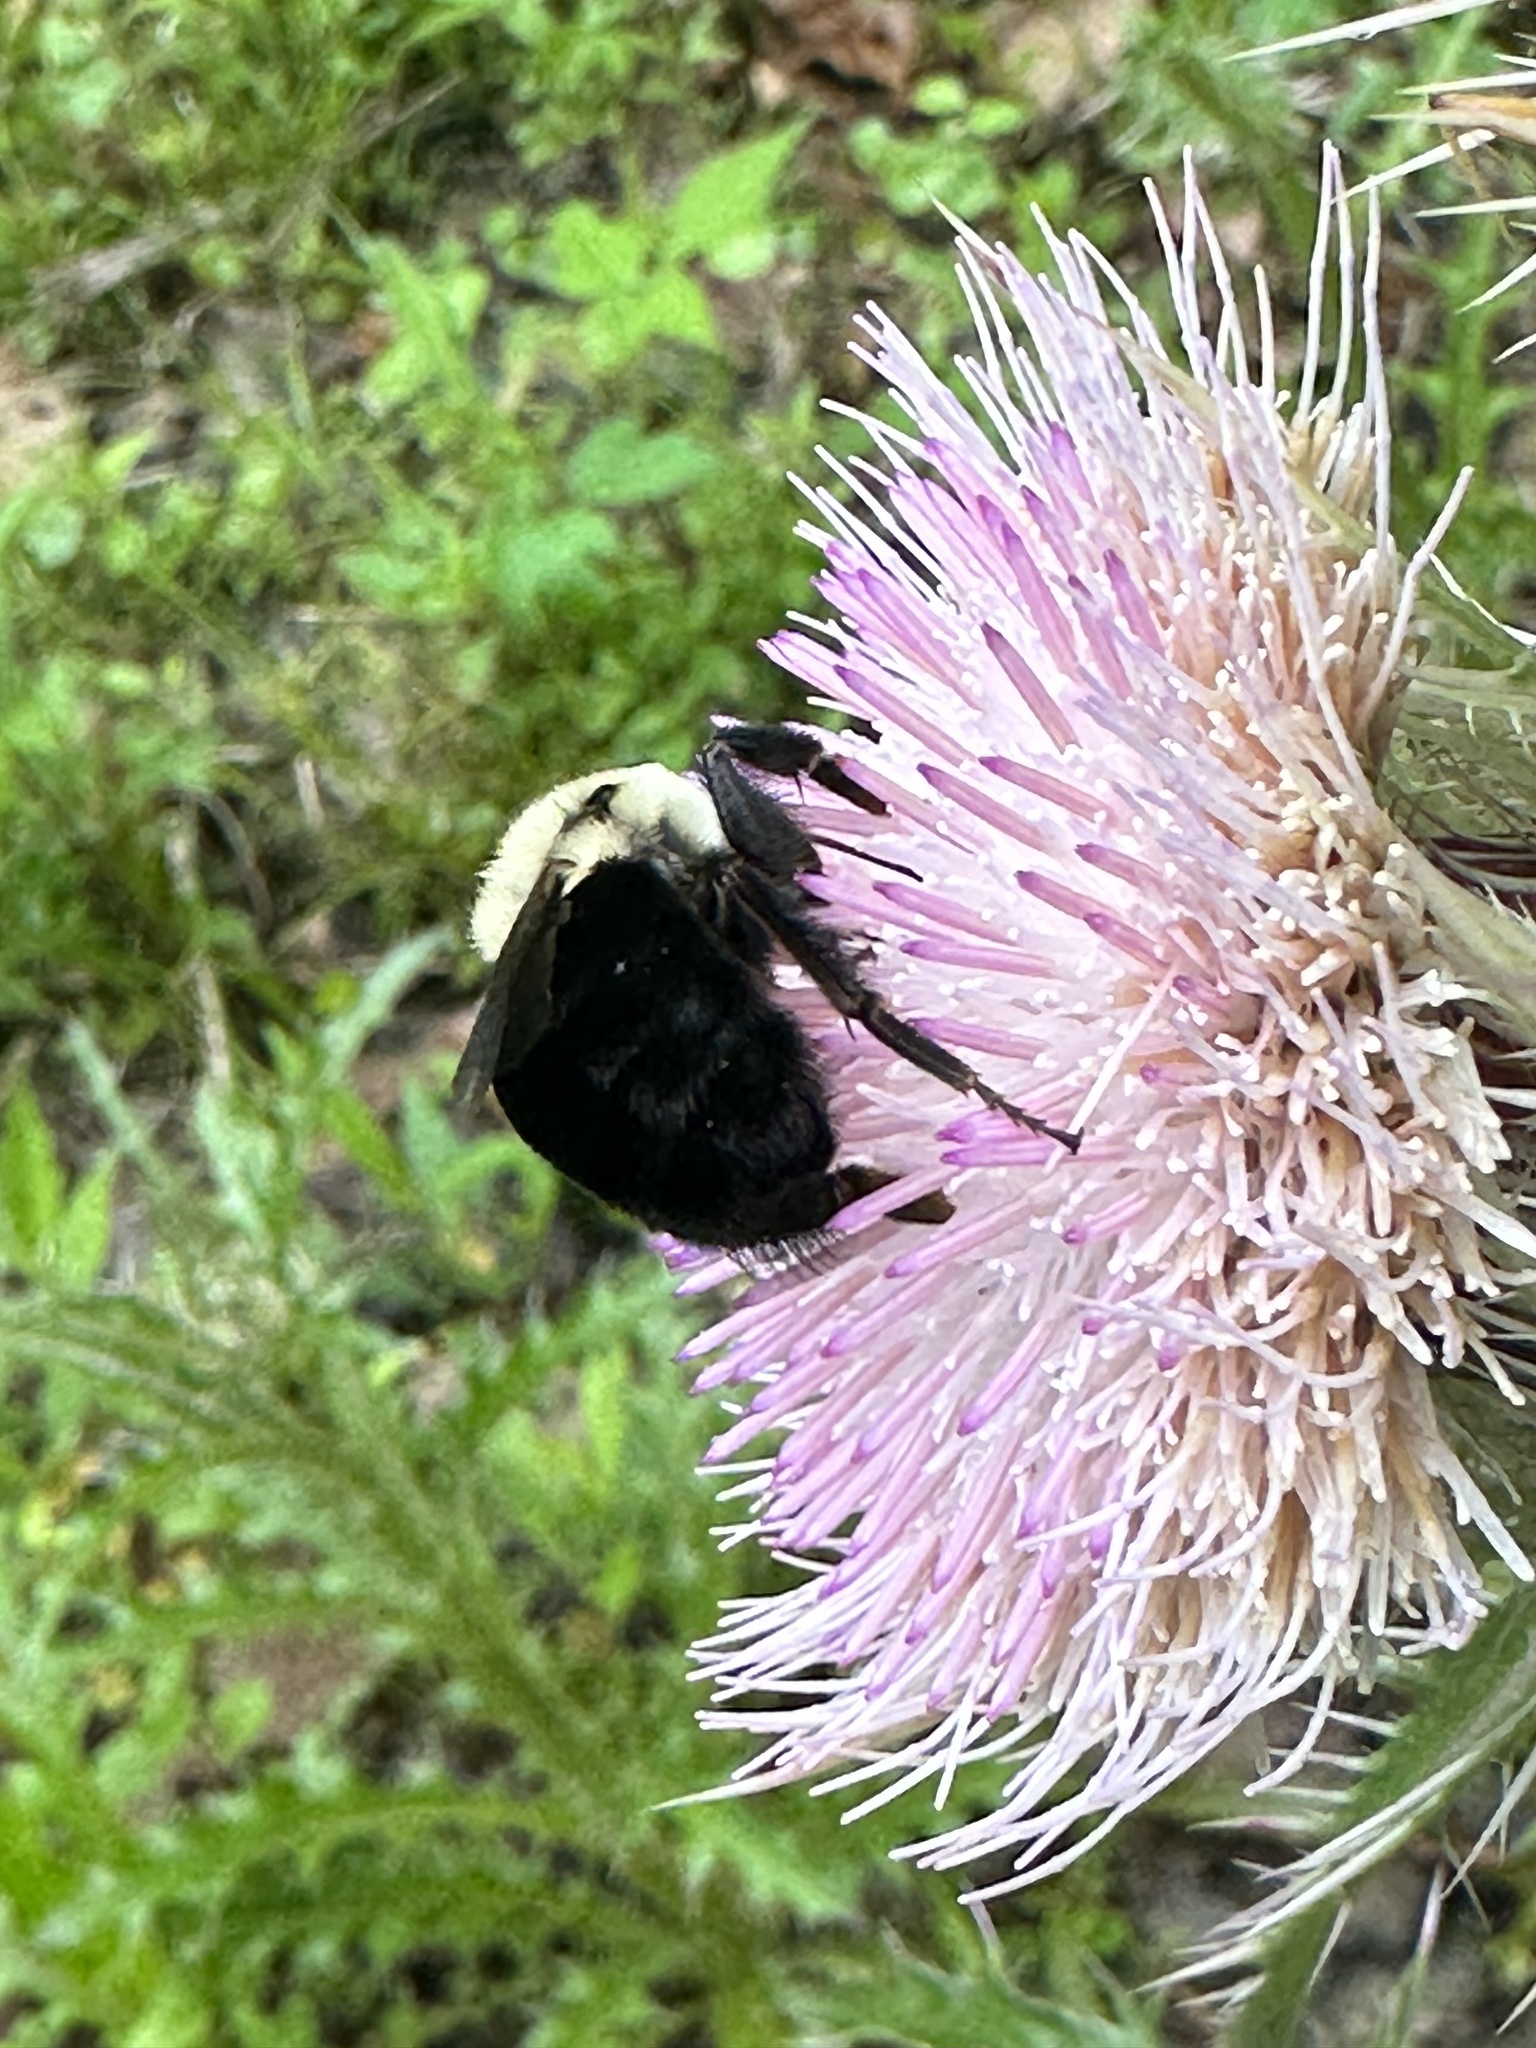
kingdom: Animalia
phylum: Arthropoda
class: Insecta
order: Hymenoptera
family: Apidae
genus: Bombus
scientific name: Bombus impatiens
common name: Common eastern bumble bee
